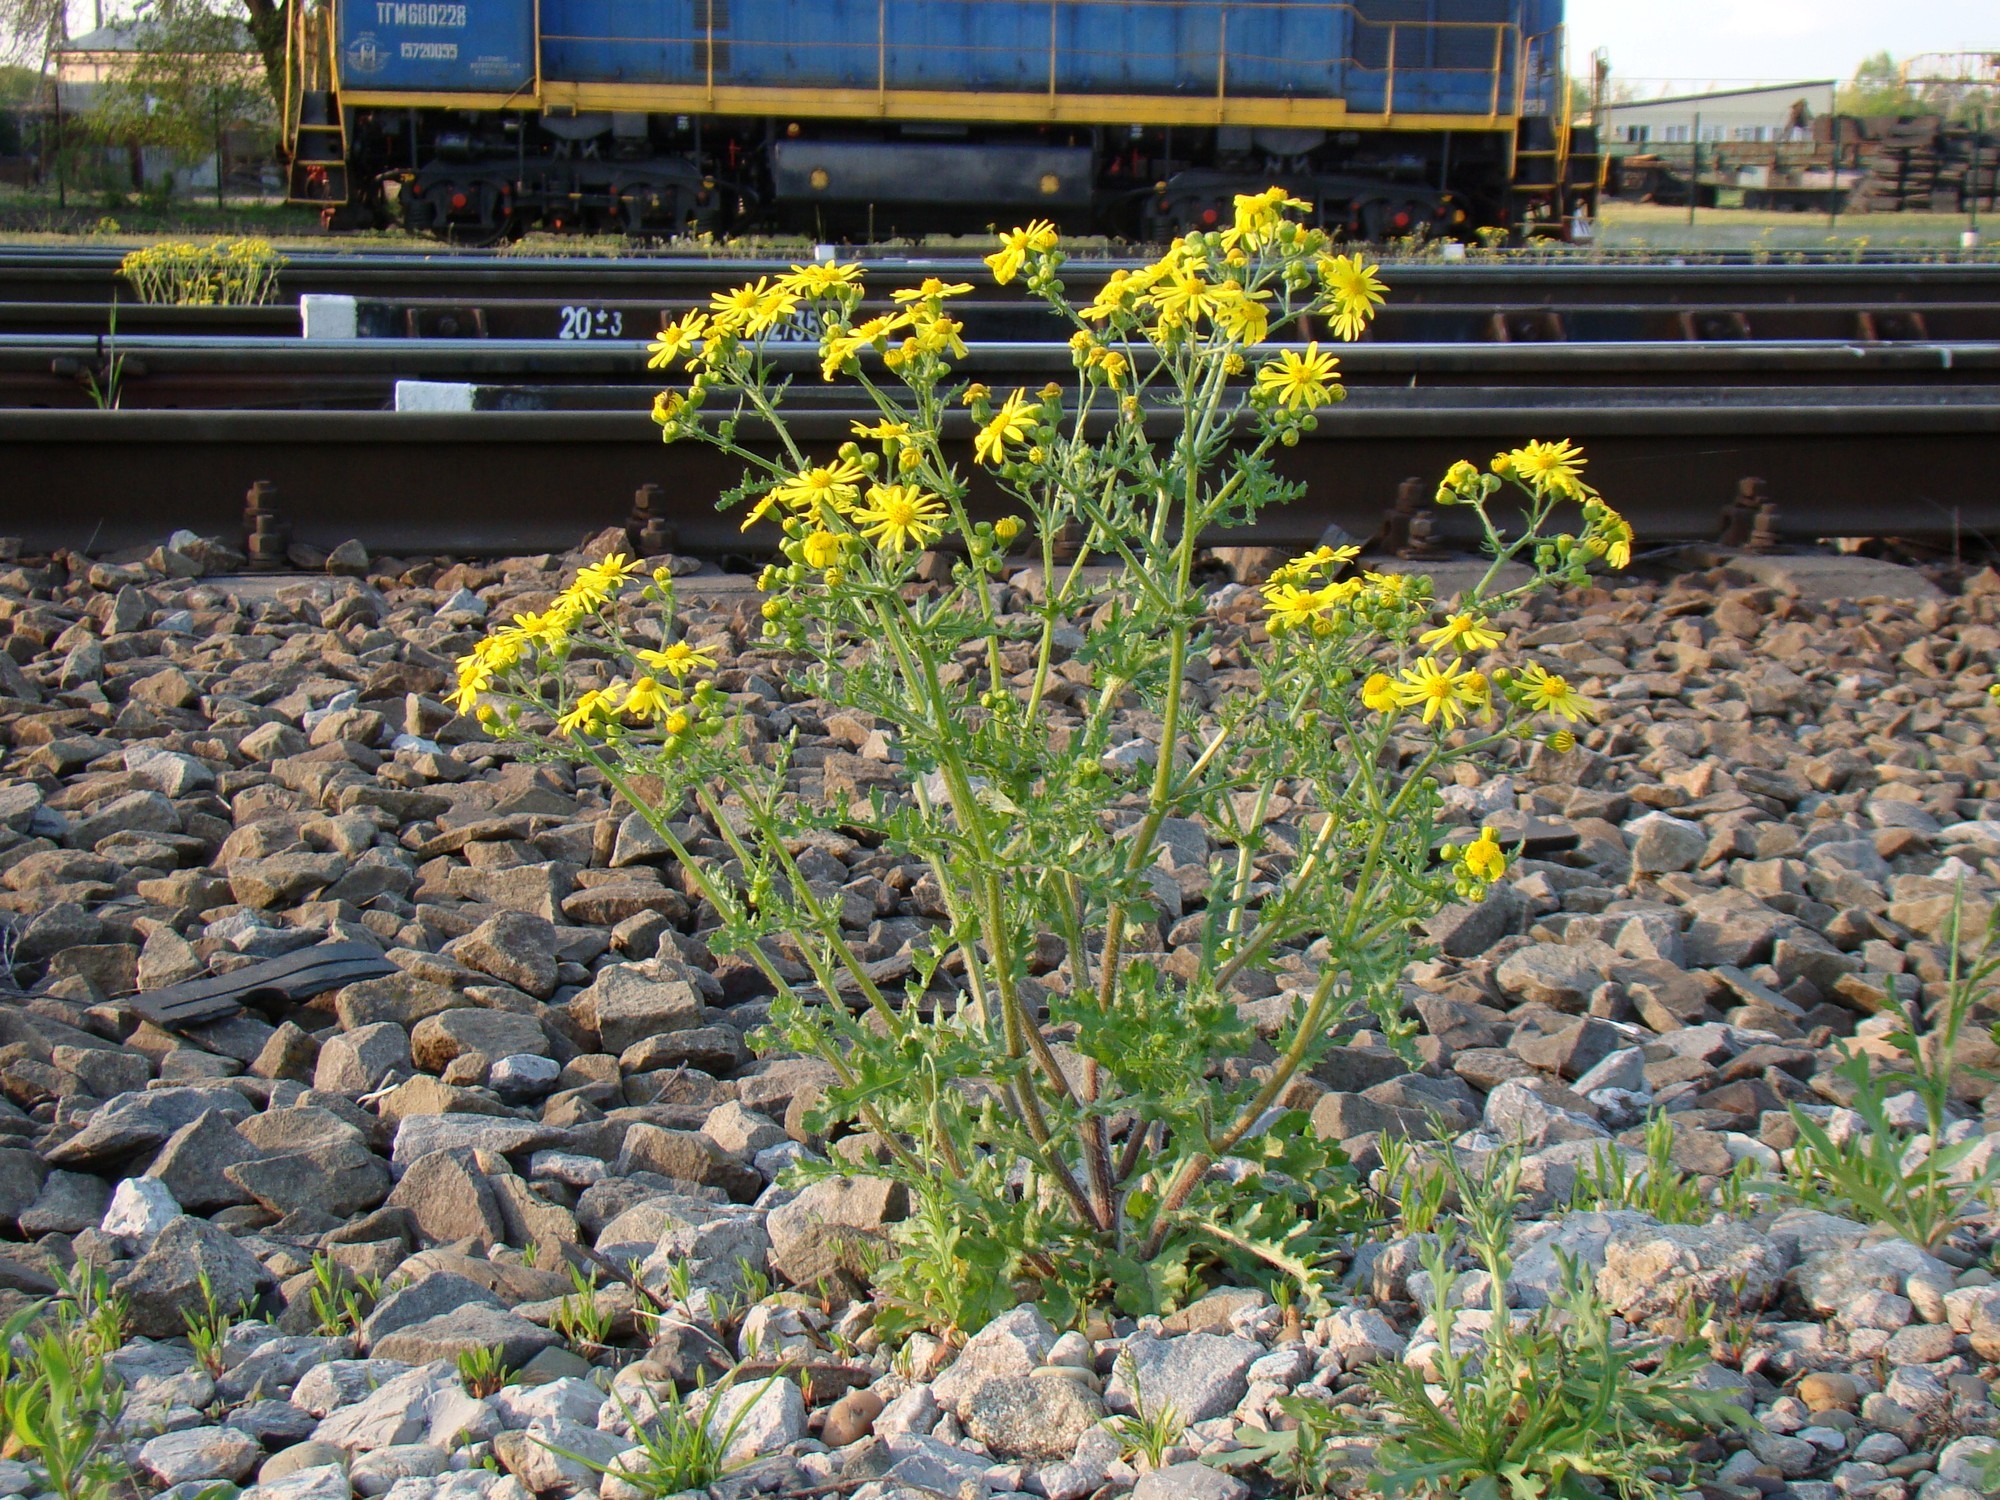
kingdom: Plantae
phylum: Tracheophyta
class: Magnoliopsida
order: Asterales
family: Asteraceae
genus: Senecio
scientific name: Senecio vernalis
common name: Eastern groundsel
